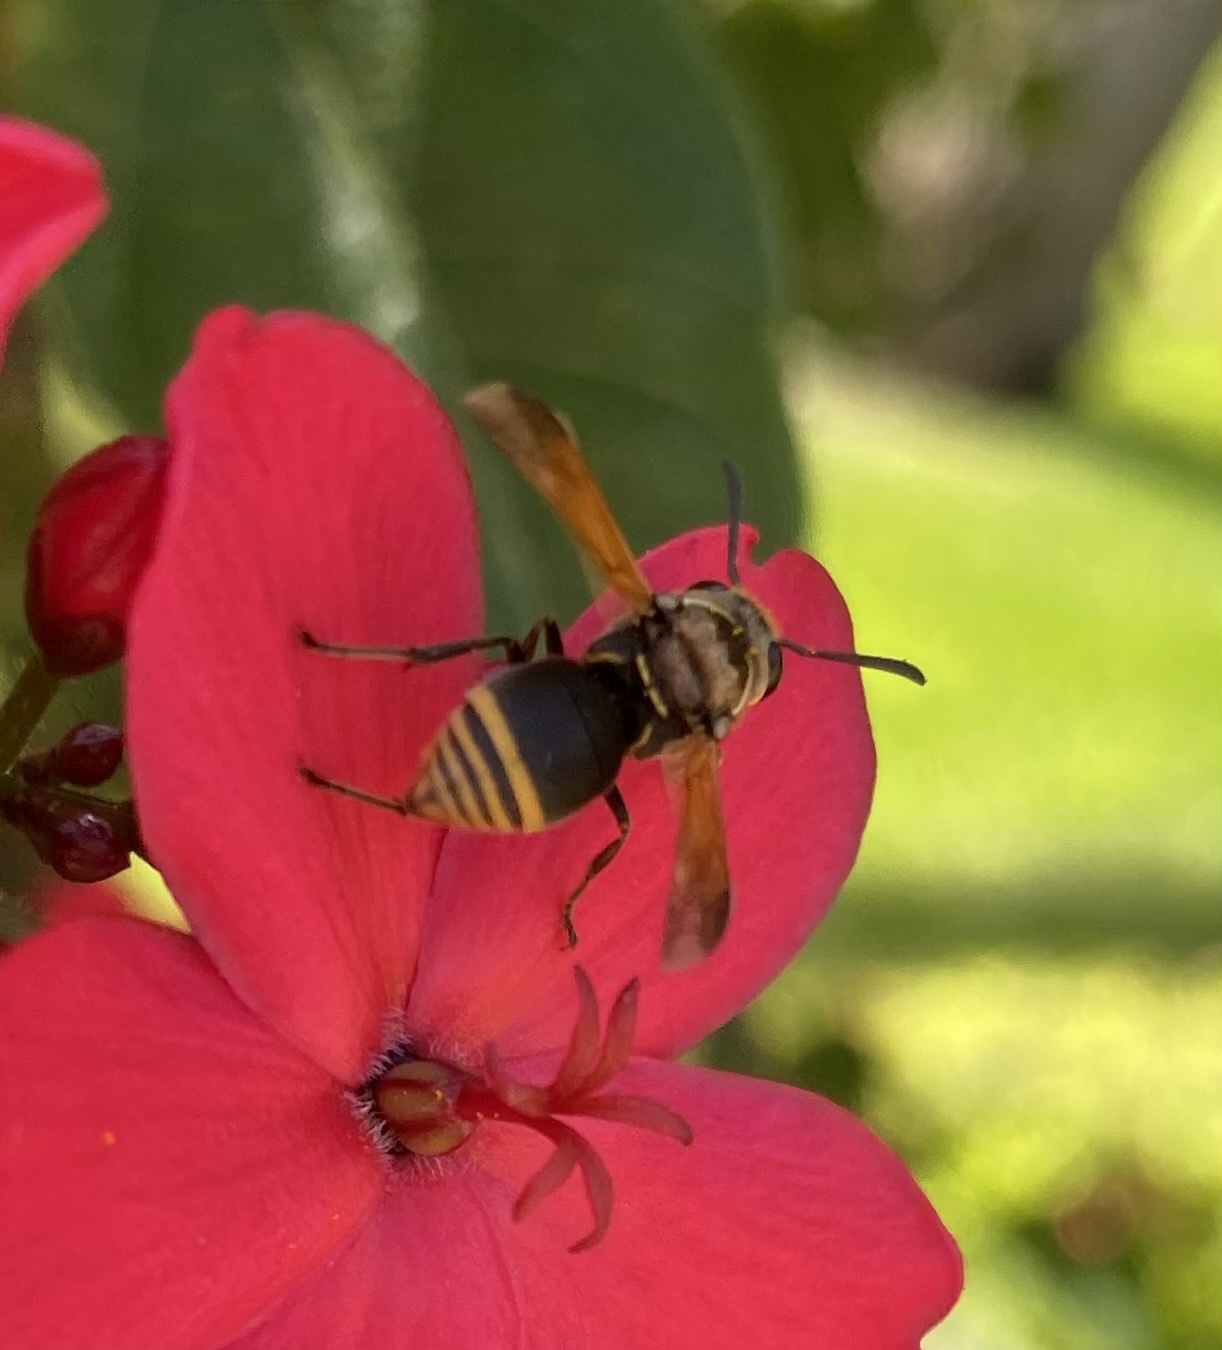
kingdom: Animalia
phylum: Arthropoda
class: Insecta
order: Hymenoptera
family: Eumenidae
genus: Pachodynerus
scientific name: Pachodynerus nasidens
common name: Key hole wasp
